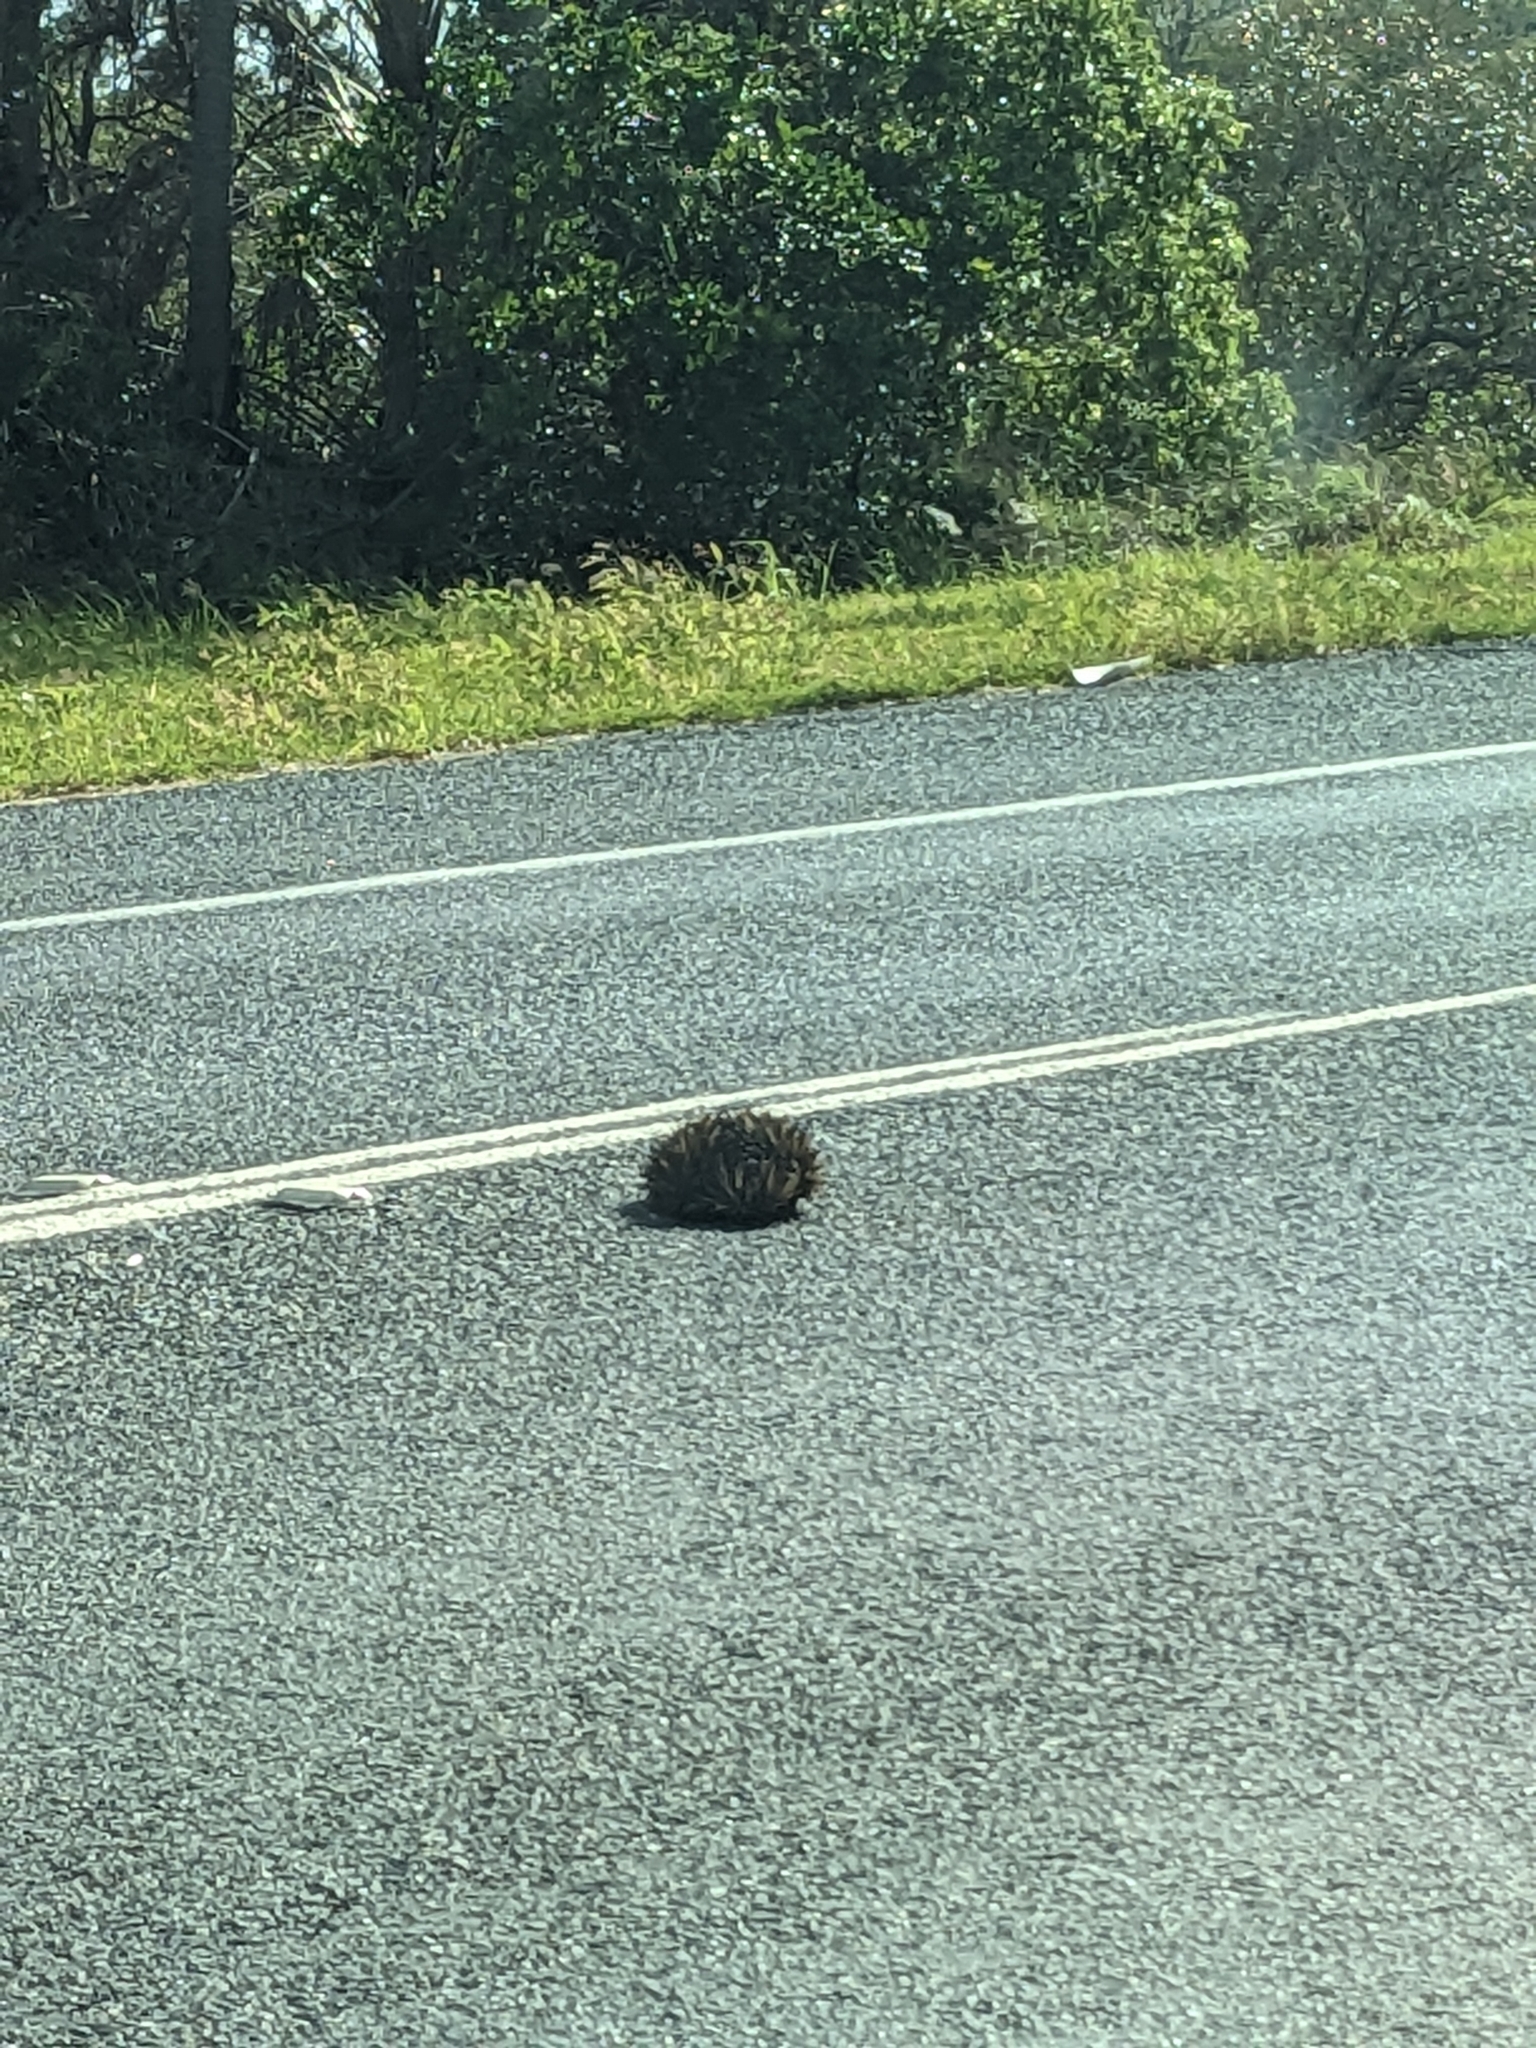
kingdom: Animalia
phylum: Chordata
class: Mammalia
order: Monotremata
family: Tachyglossidae
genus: Tachyglossus
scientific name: Tachyglossus aculeatus
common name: Short-beaked echidna
